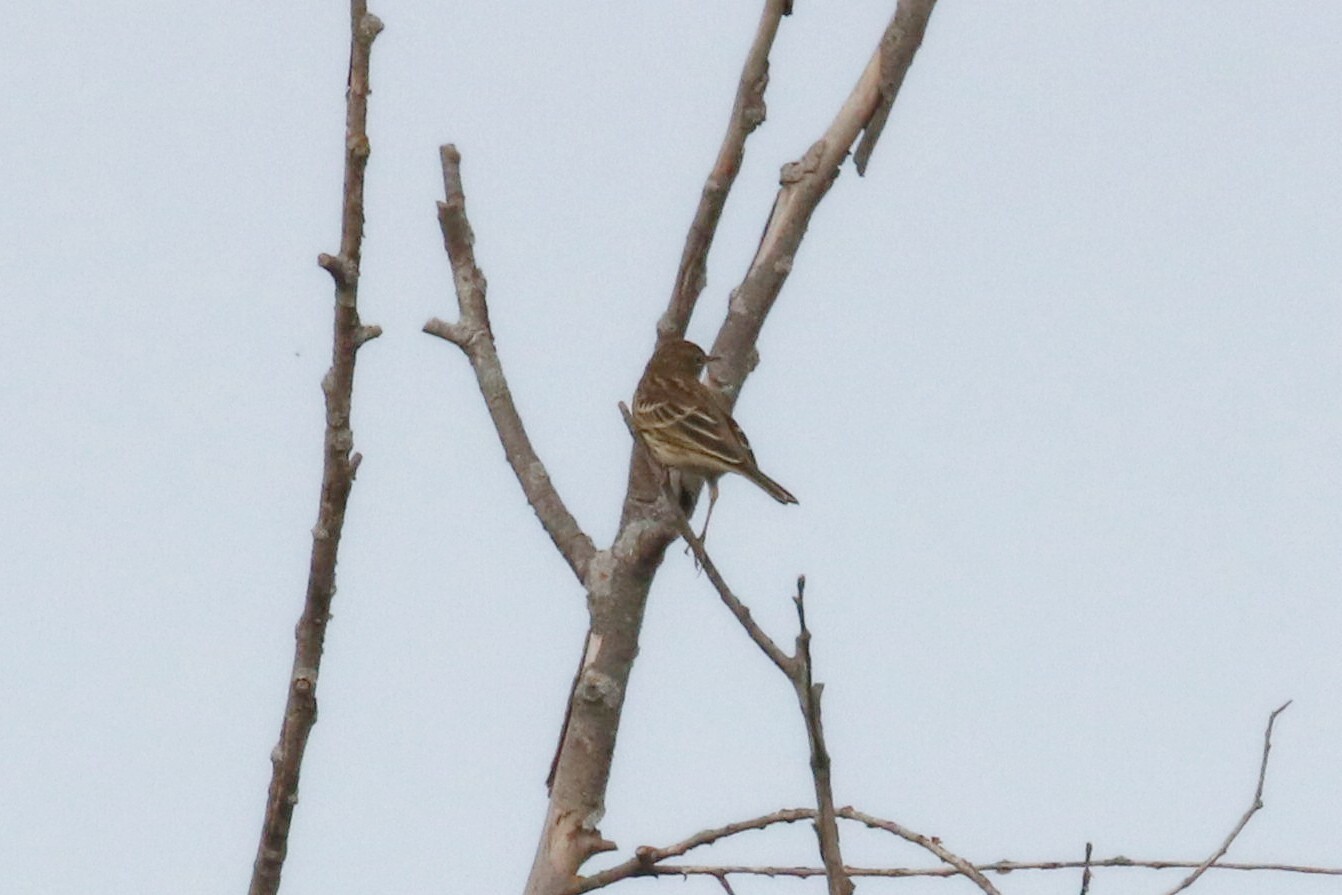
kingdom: Animalia
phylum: Chordata
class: Aves
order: Passeriformes
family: Motacillidae
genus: Anthus
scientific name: Anthus pratensis
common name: Meadow pipit
